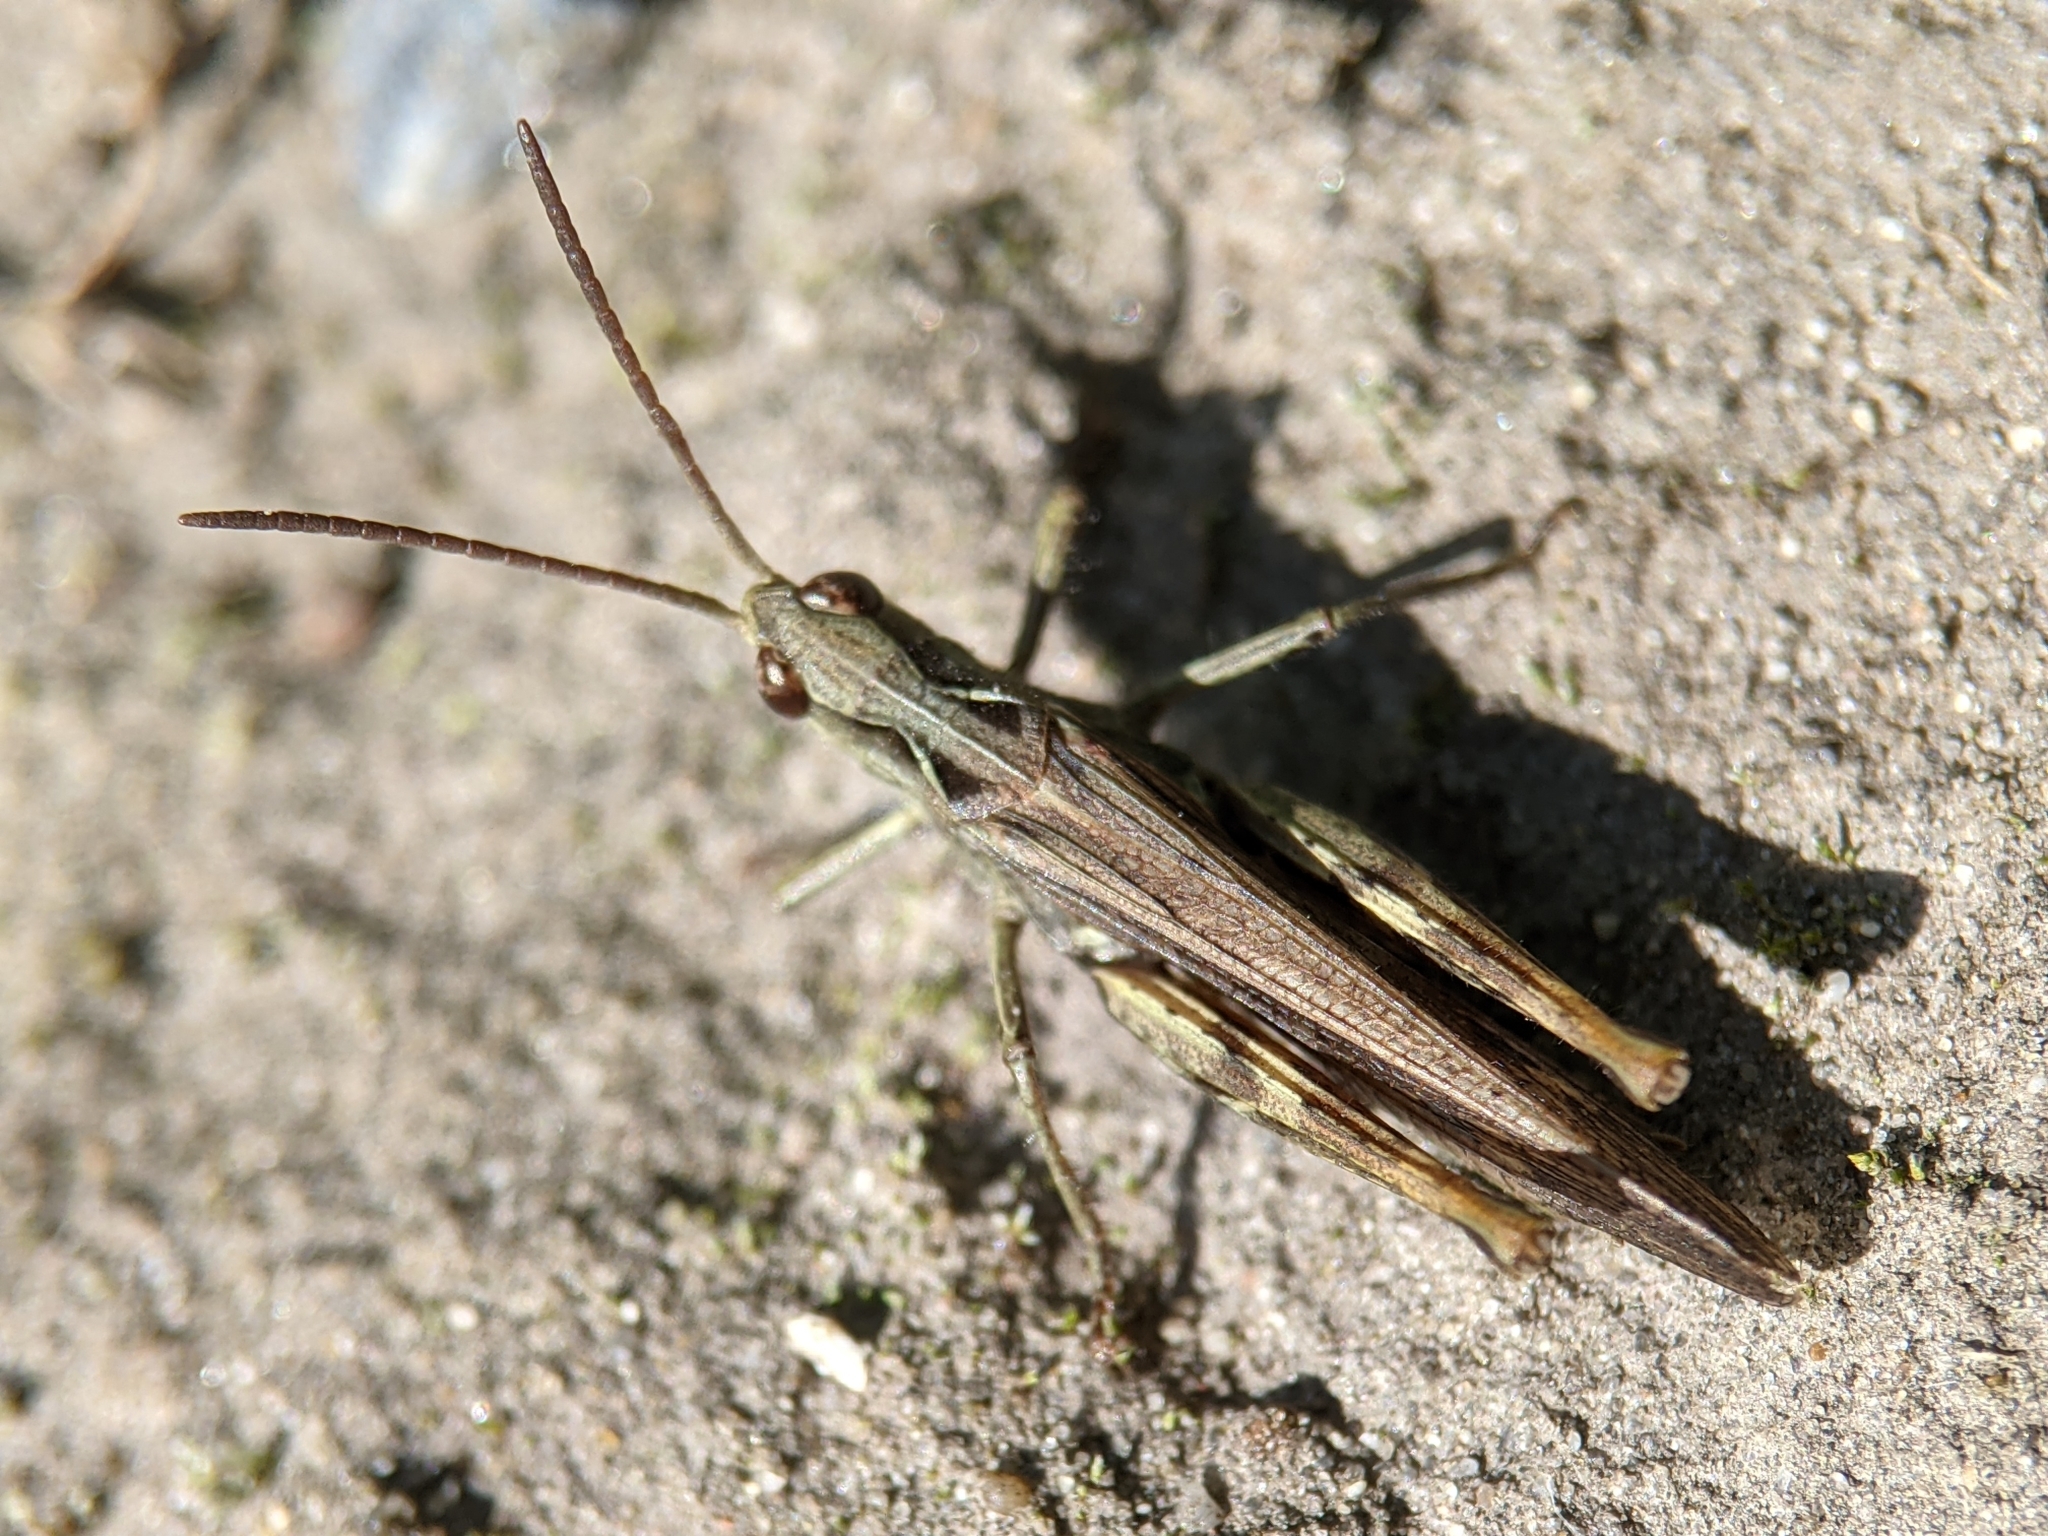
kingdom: Animalia
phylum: Arthropoda
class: Insecta
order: Orthoptera
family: Acrididae
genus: Chorthippus
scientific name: Chorthippus brunneus
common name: Field grasshopper
